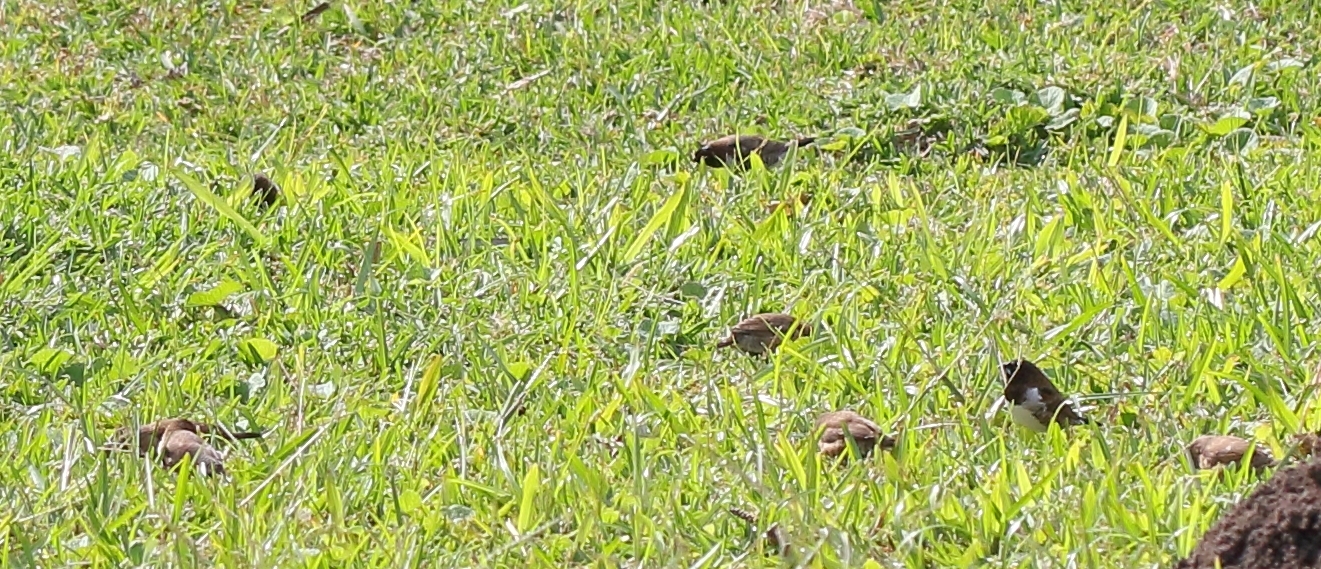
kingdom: Animalia
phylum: Chordata
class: Aves
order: Passeriformes
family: Estrildidae
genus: Lonchura
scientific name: Lonchura cucullata
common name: Bronze mannikin
